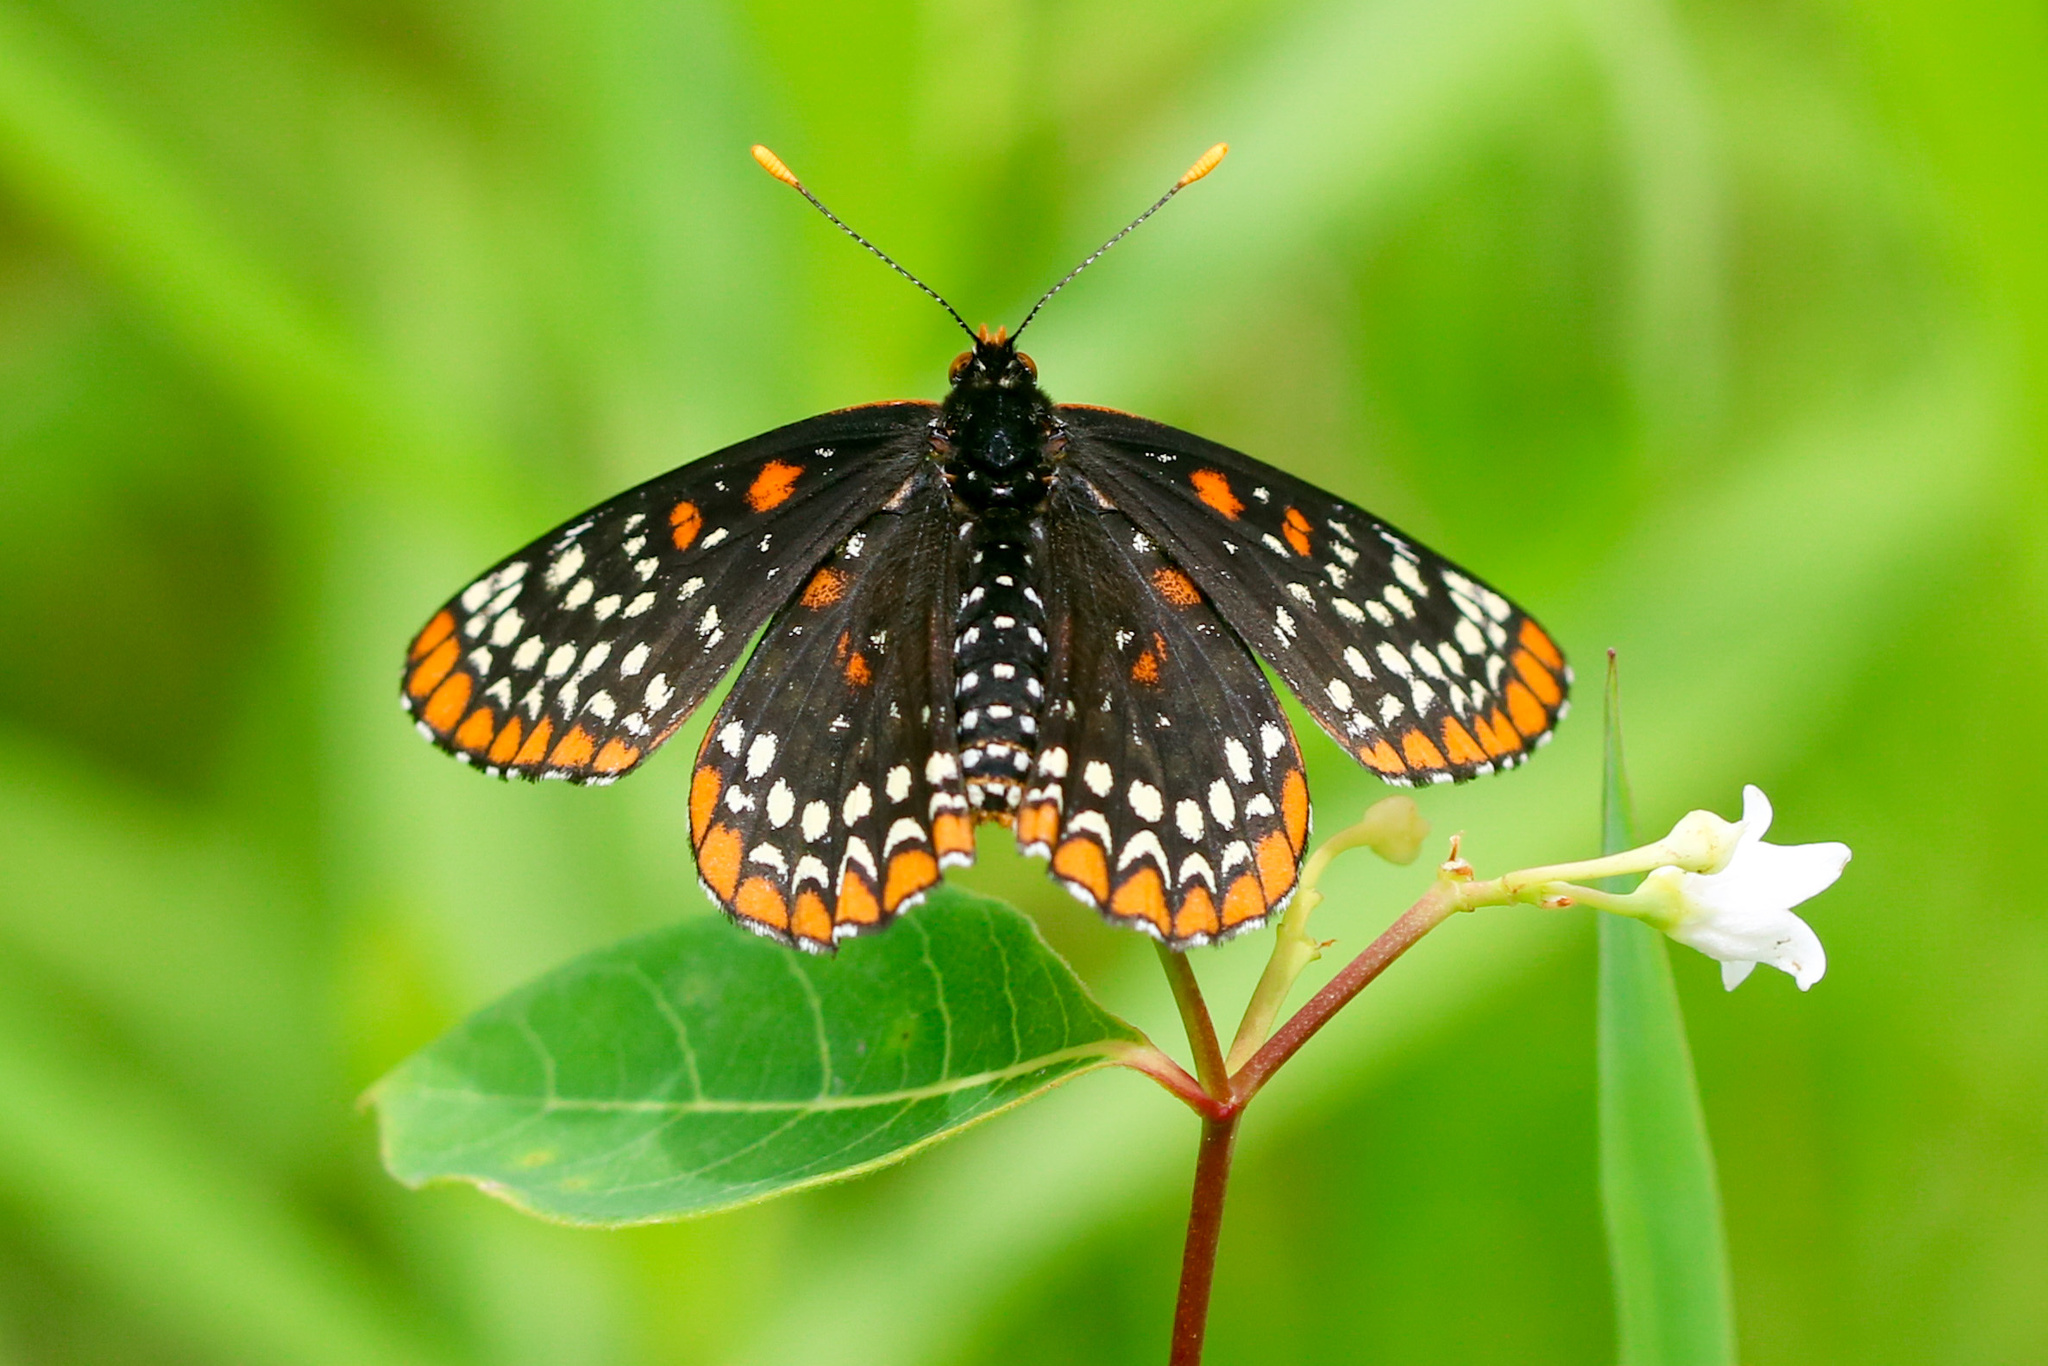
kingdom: Animalia
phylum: Arthropoda
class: Insecta
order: Lepidoptera
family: Nymphalidae
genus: Euphydryas
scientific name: Euphydryas phaeton
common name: Baltimore checkerspot
